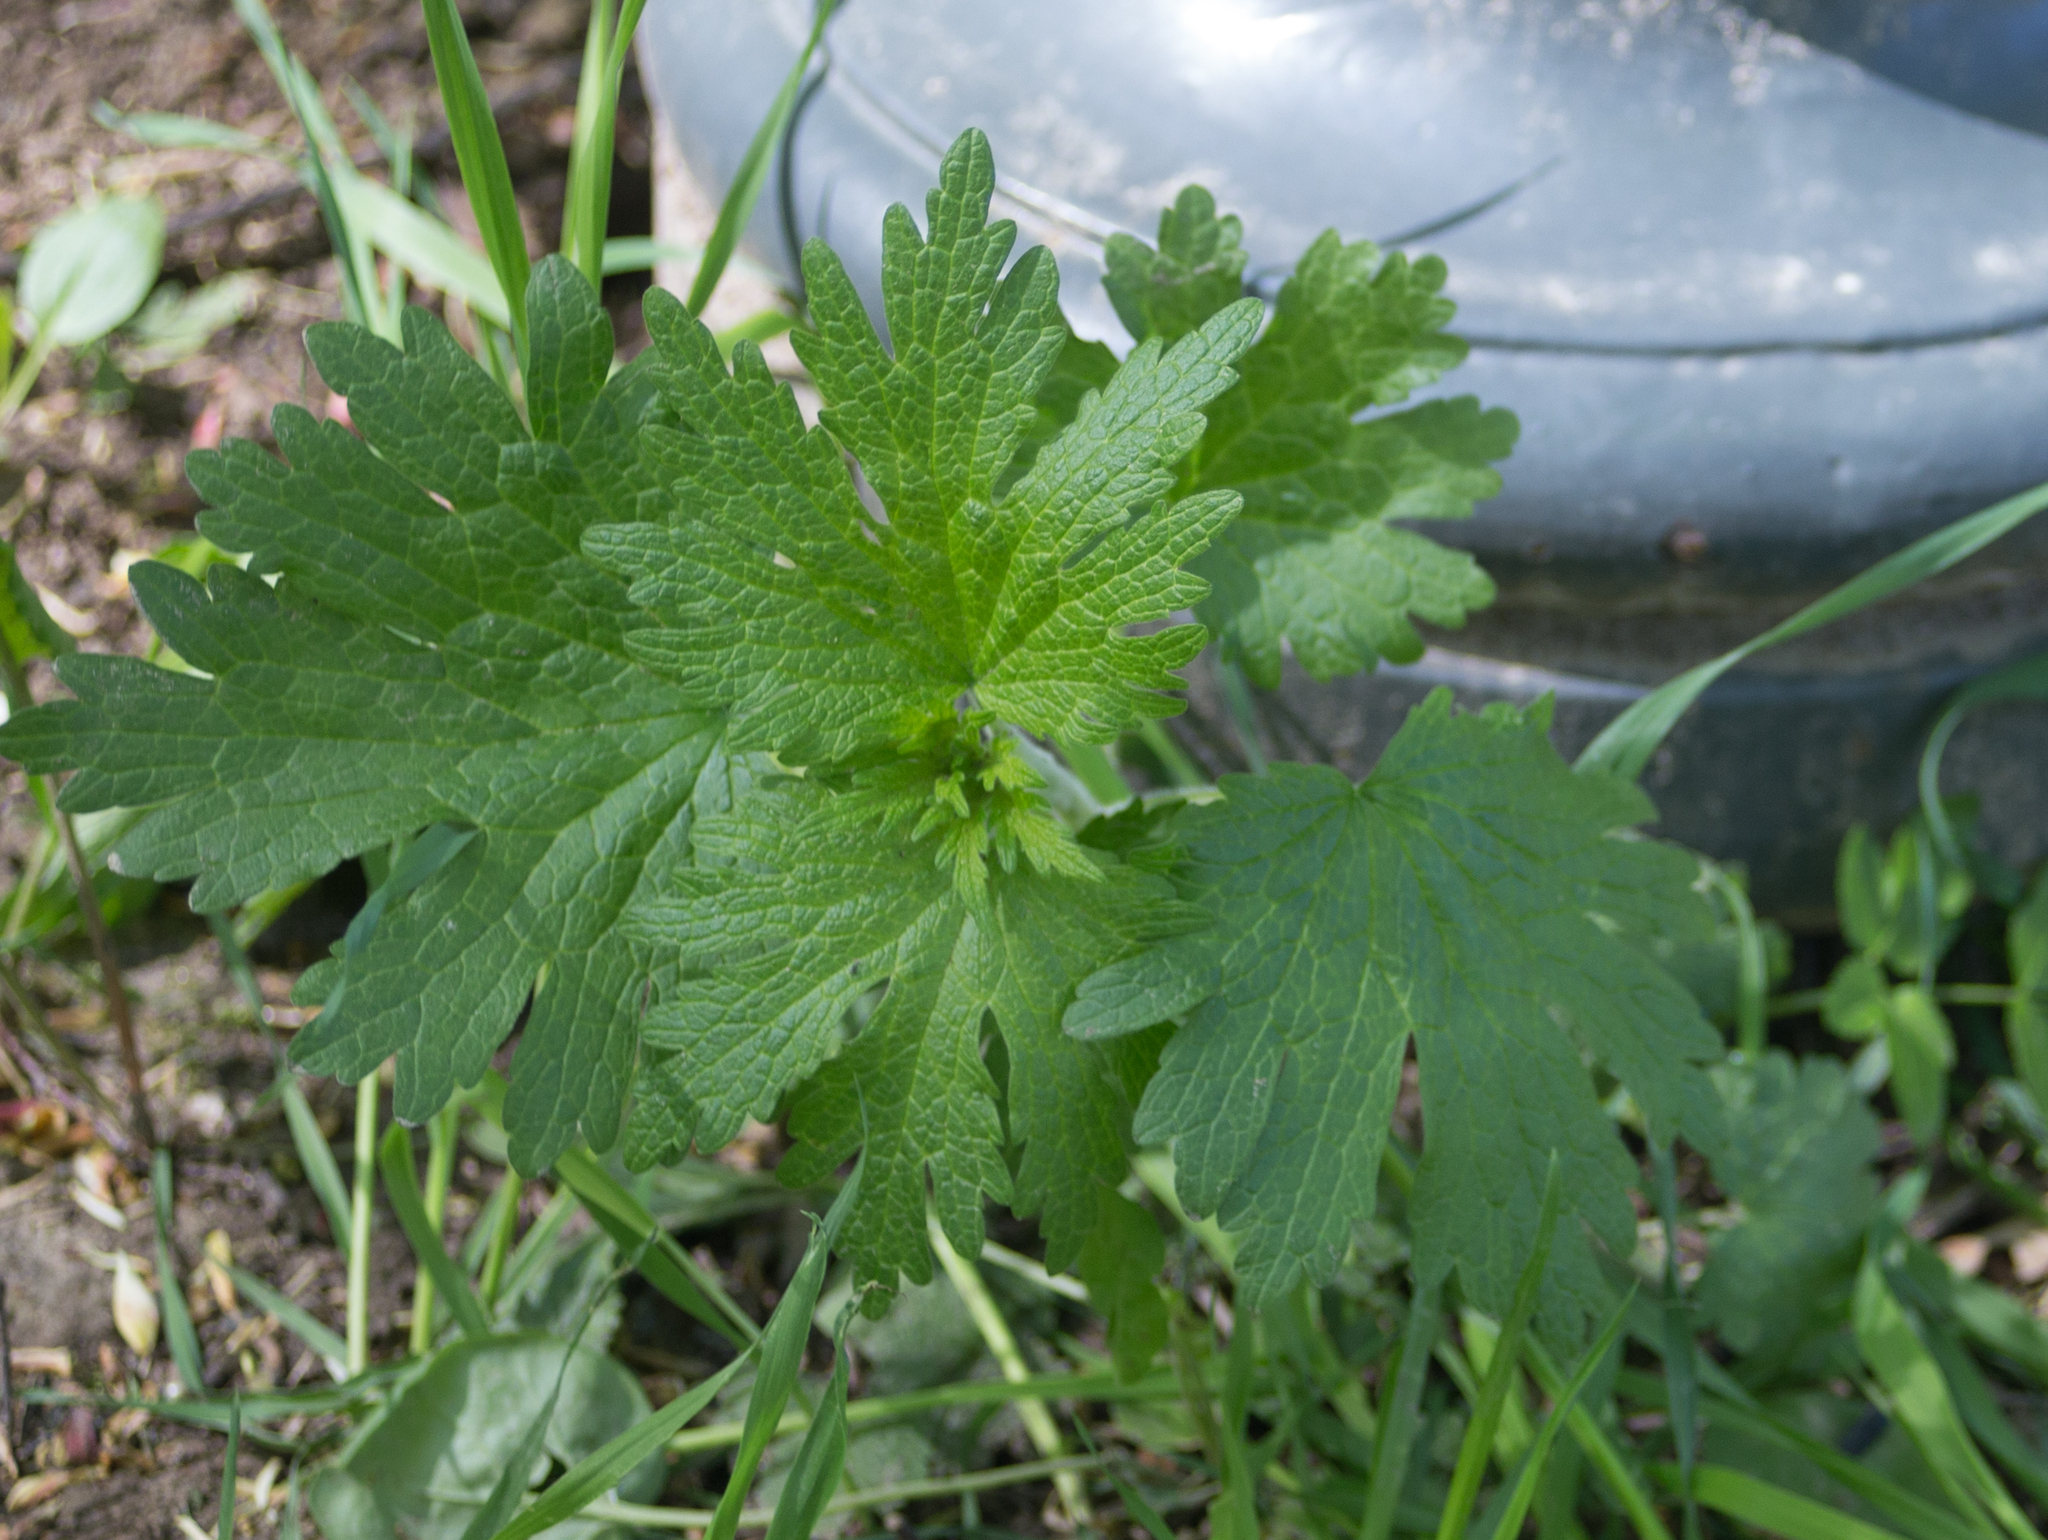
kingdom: Plantae
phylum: Tracheophyta
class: Magnoliopsida
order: Lamiales
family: Lamiaceae
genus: Leonurus
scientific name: Leonurus quinquelobatus
